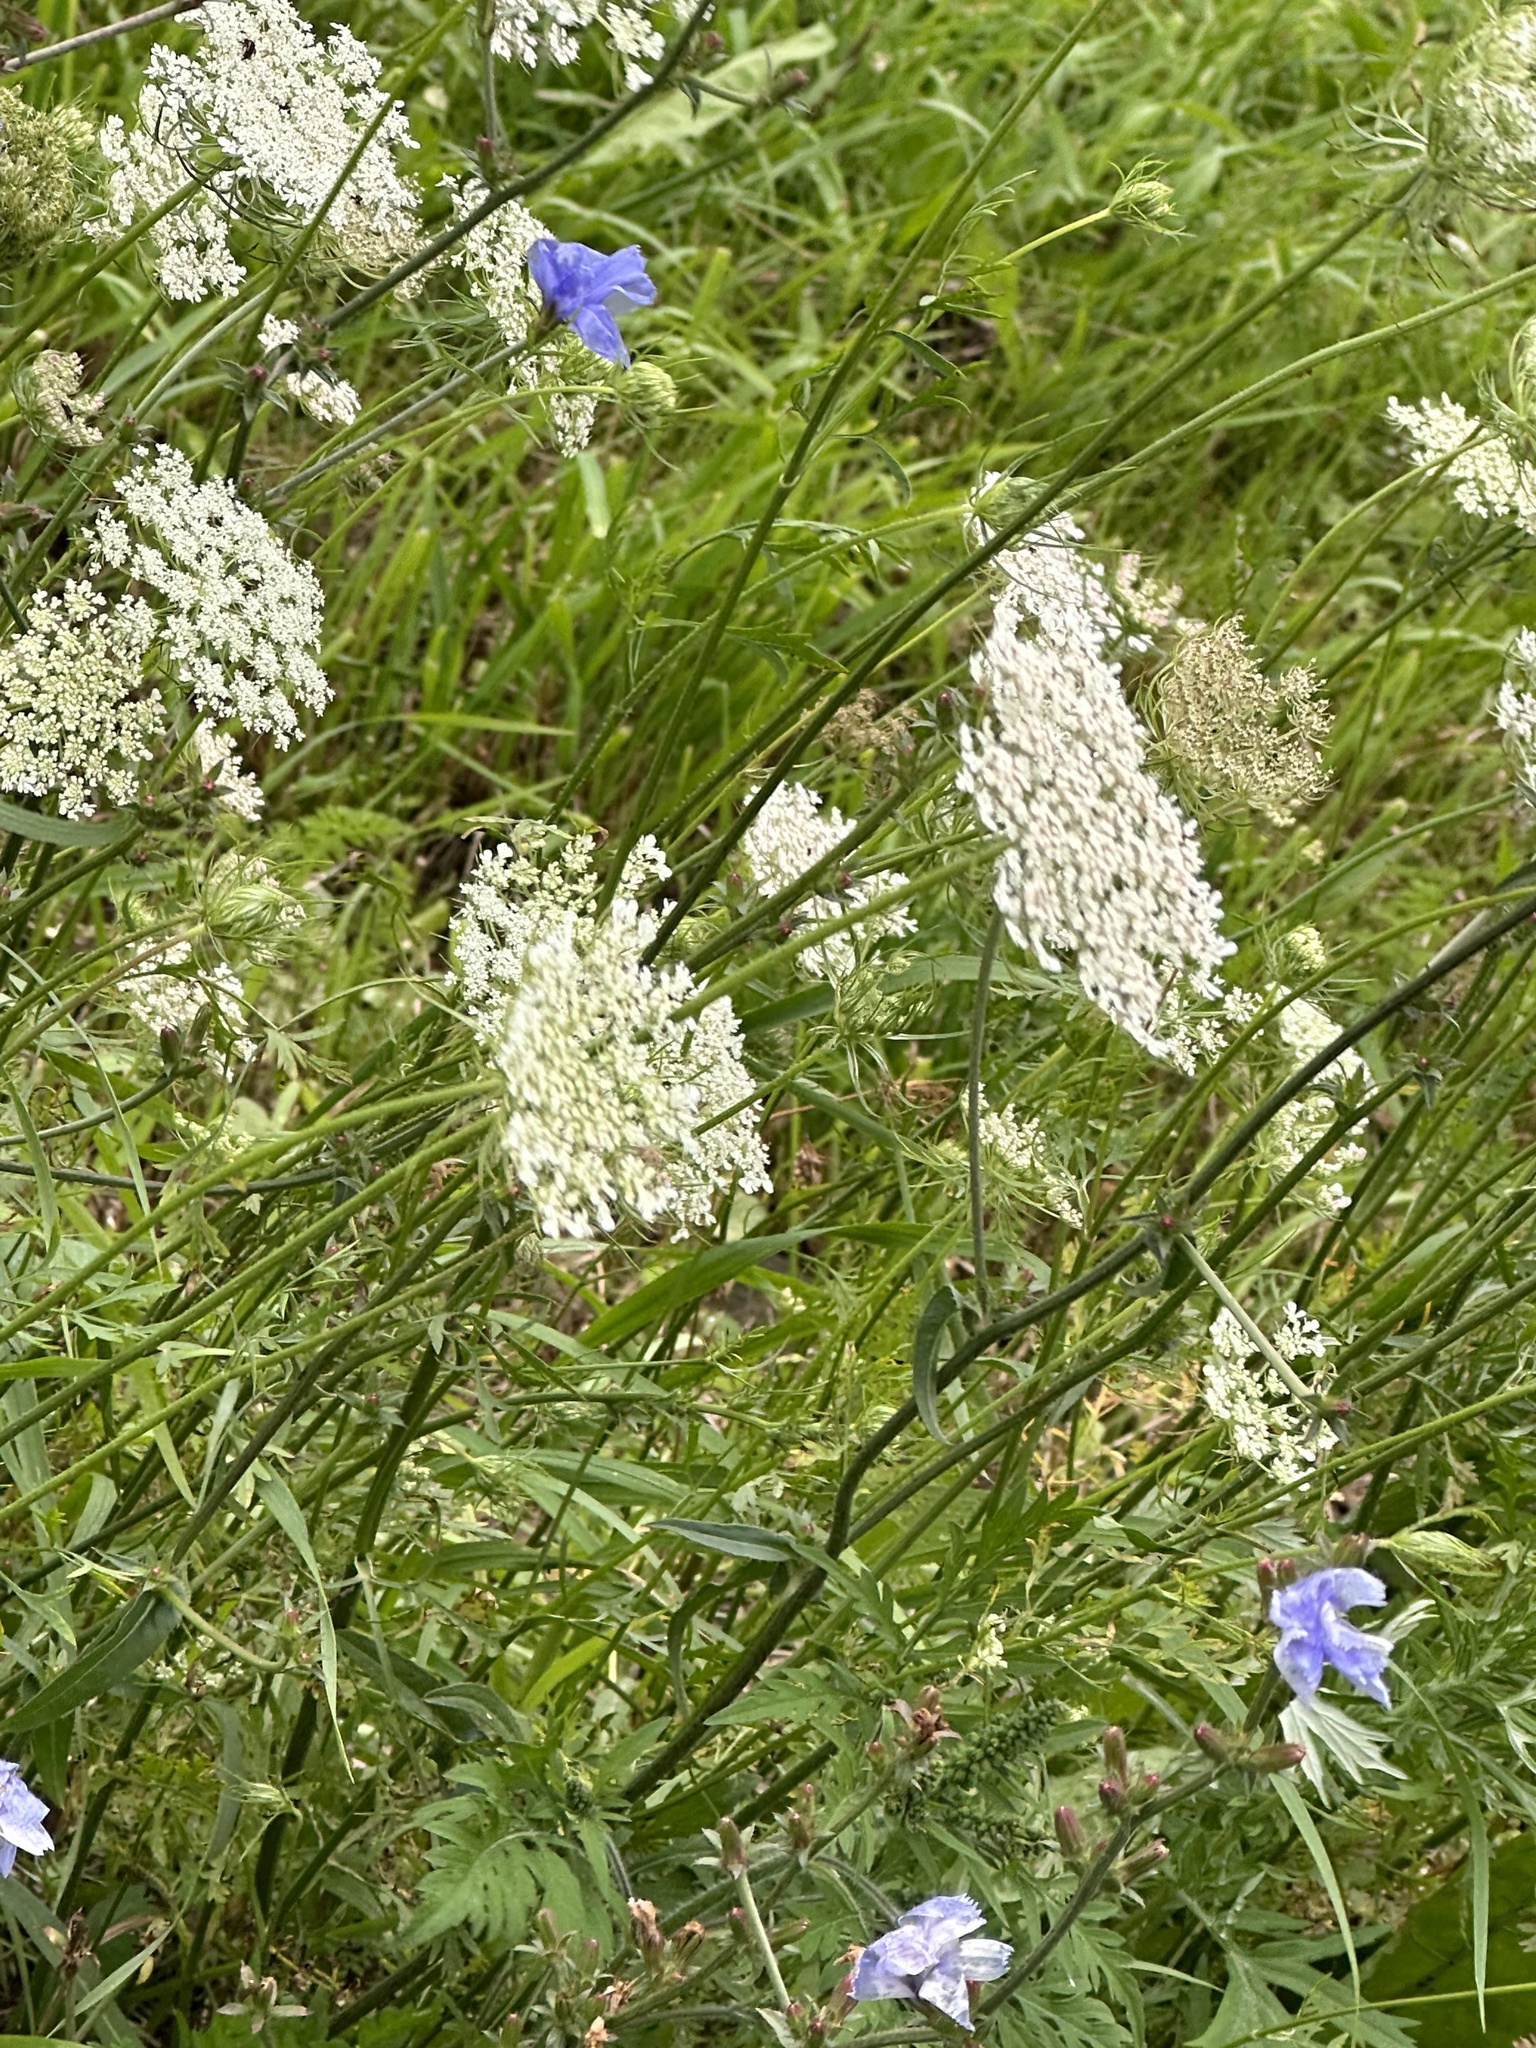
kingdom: Plantae
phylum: Tracheophyta
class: Magnoliopsida
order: Apiales
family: Apiaceae
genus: Daucus
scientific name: Daucus carota
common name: Wild carrot
